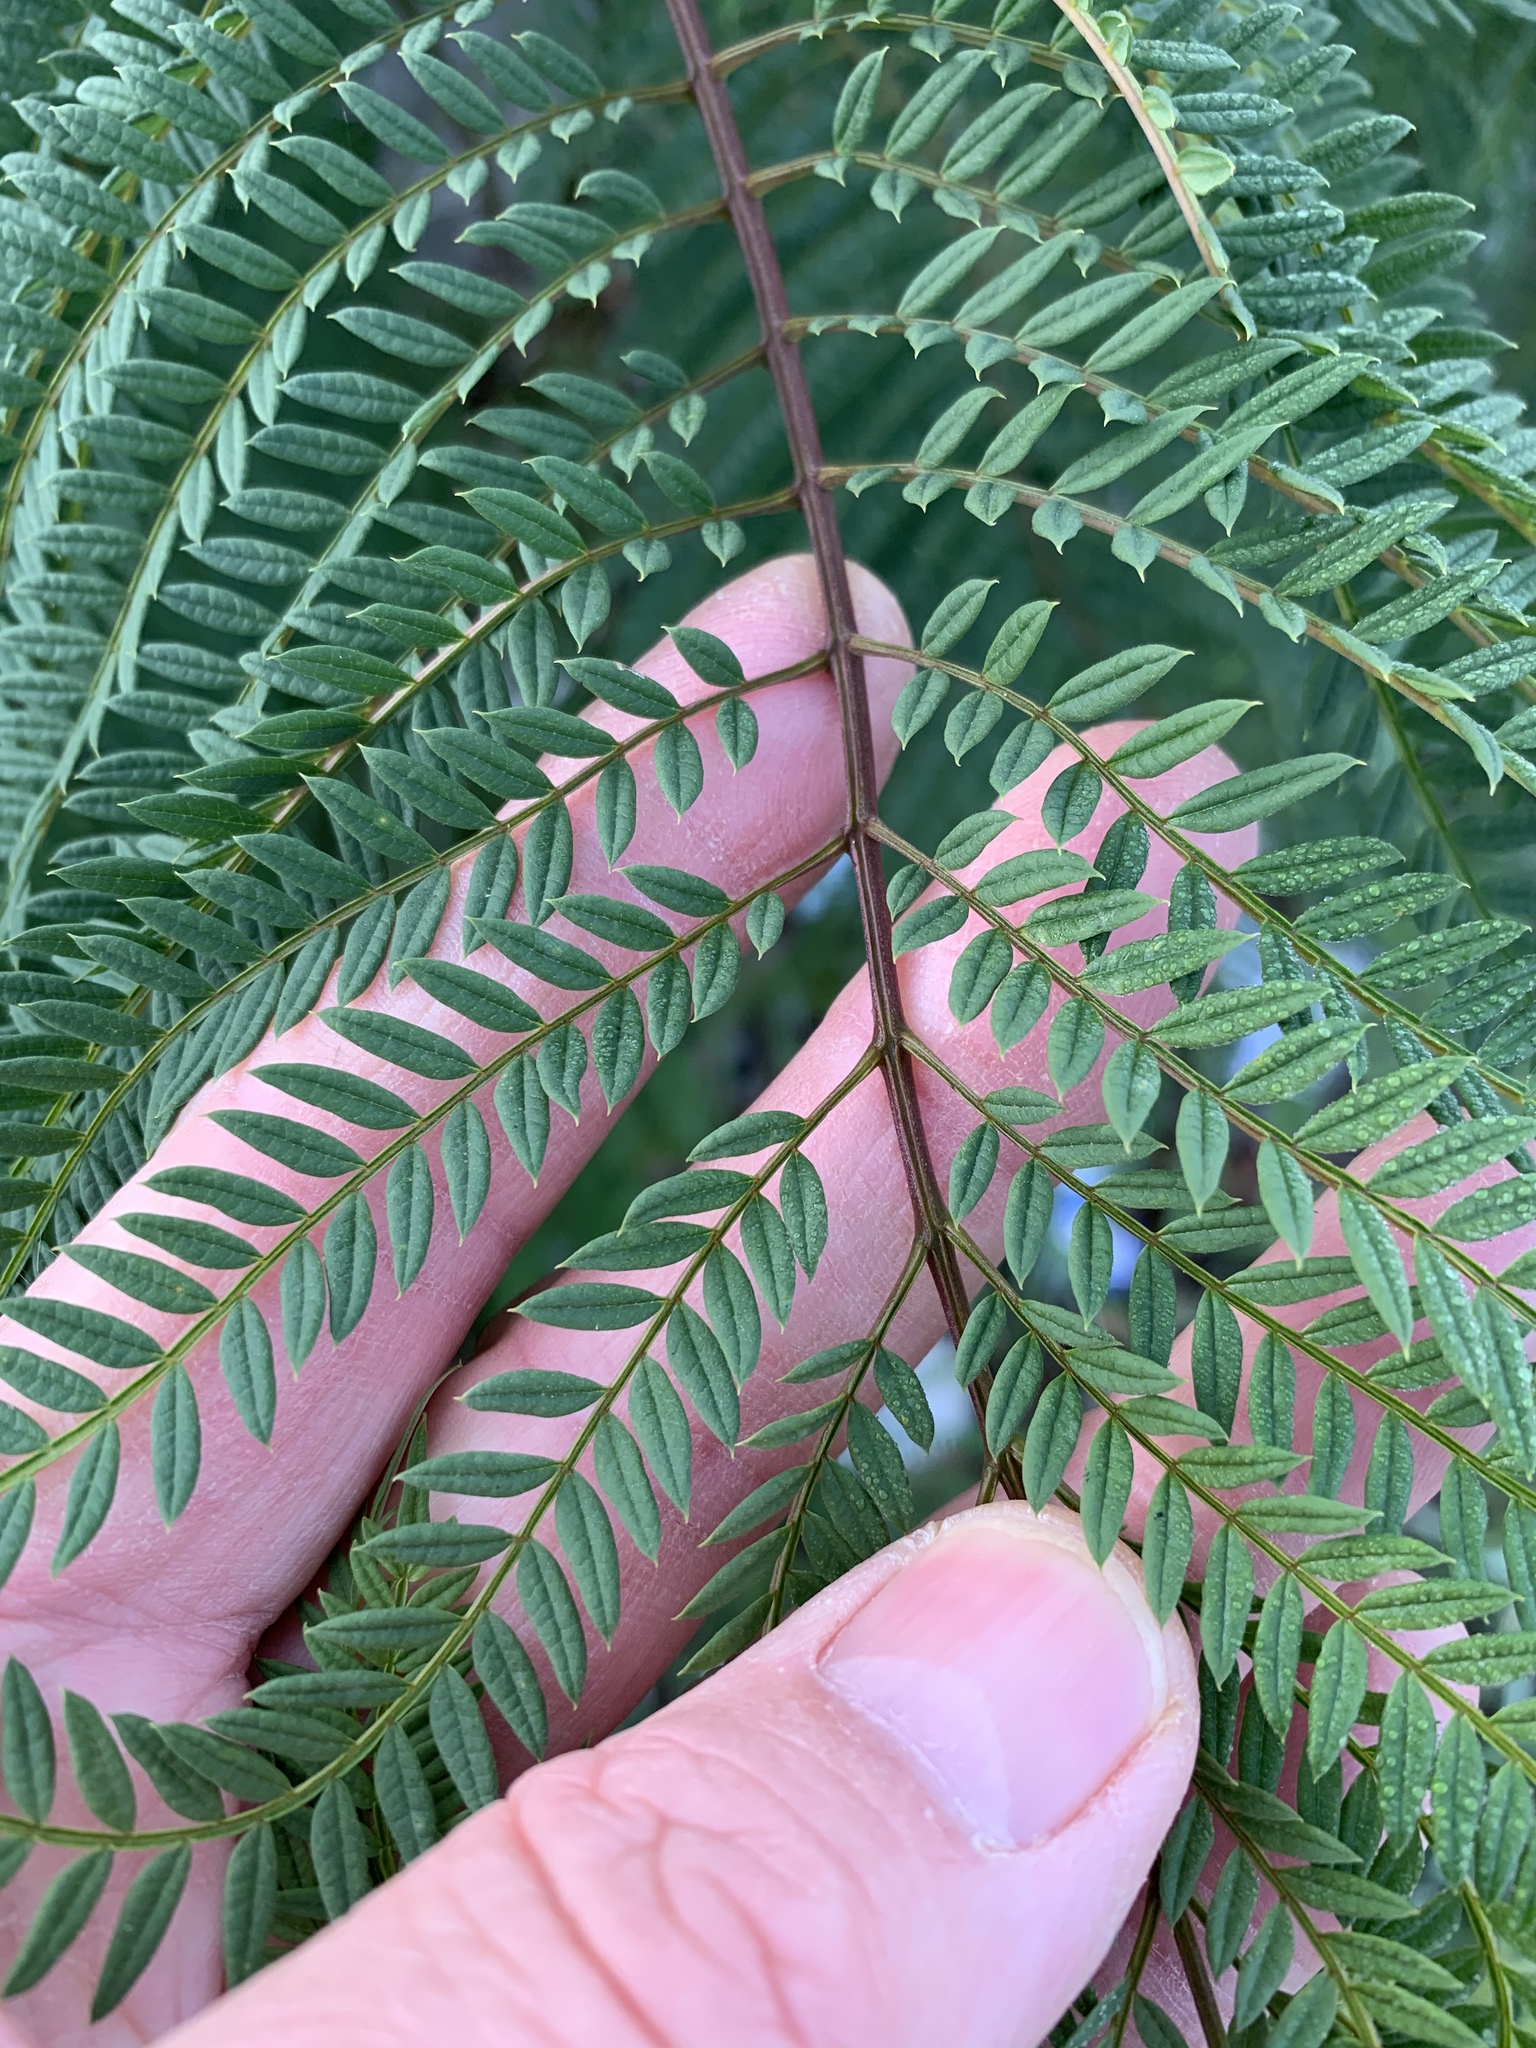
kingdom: Plantae
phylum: Tracheophyta
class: Magnoliopsida
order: Lamiales
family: Bignoniaceae
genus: Jacaranda
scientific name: Jacaranda mimosifolia
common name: Black poui
